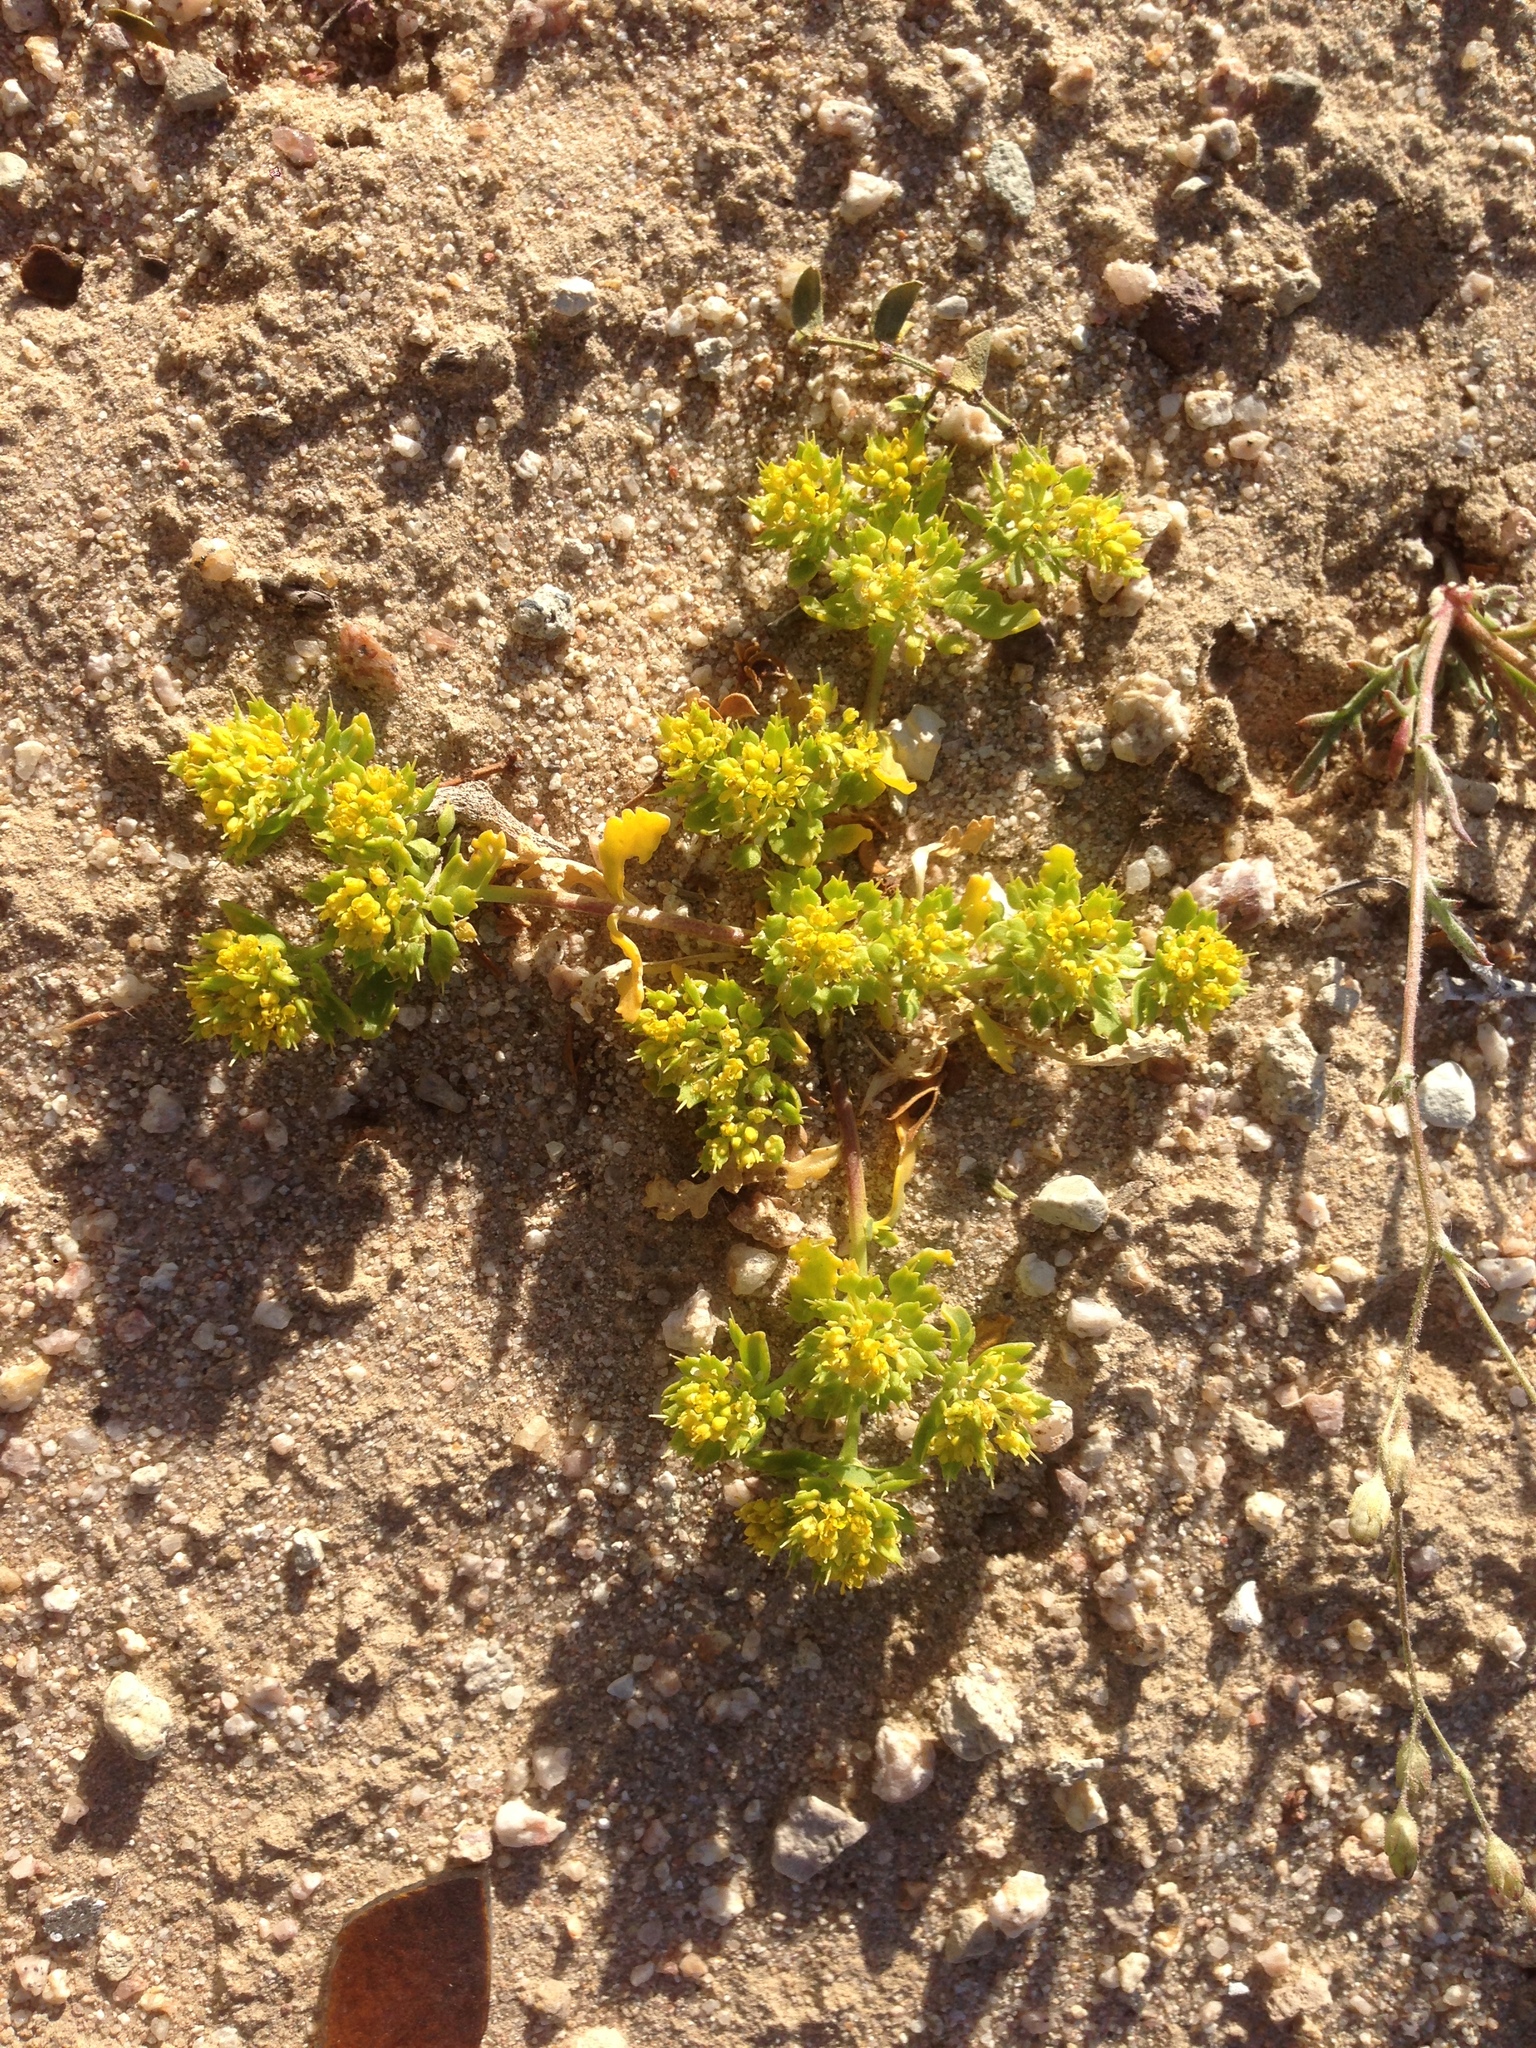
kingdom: Plantae
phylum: Tracheophyta
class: Magnoliopsida
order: Brassicales
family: Brassicaceae
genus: Lepidium
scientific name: Lepidium flavum
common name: Yellow pepperwort
